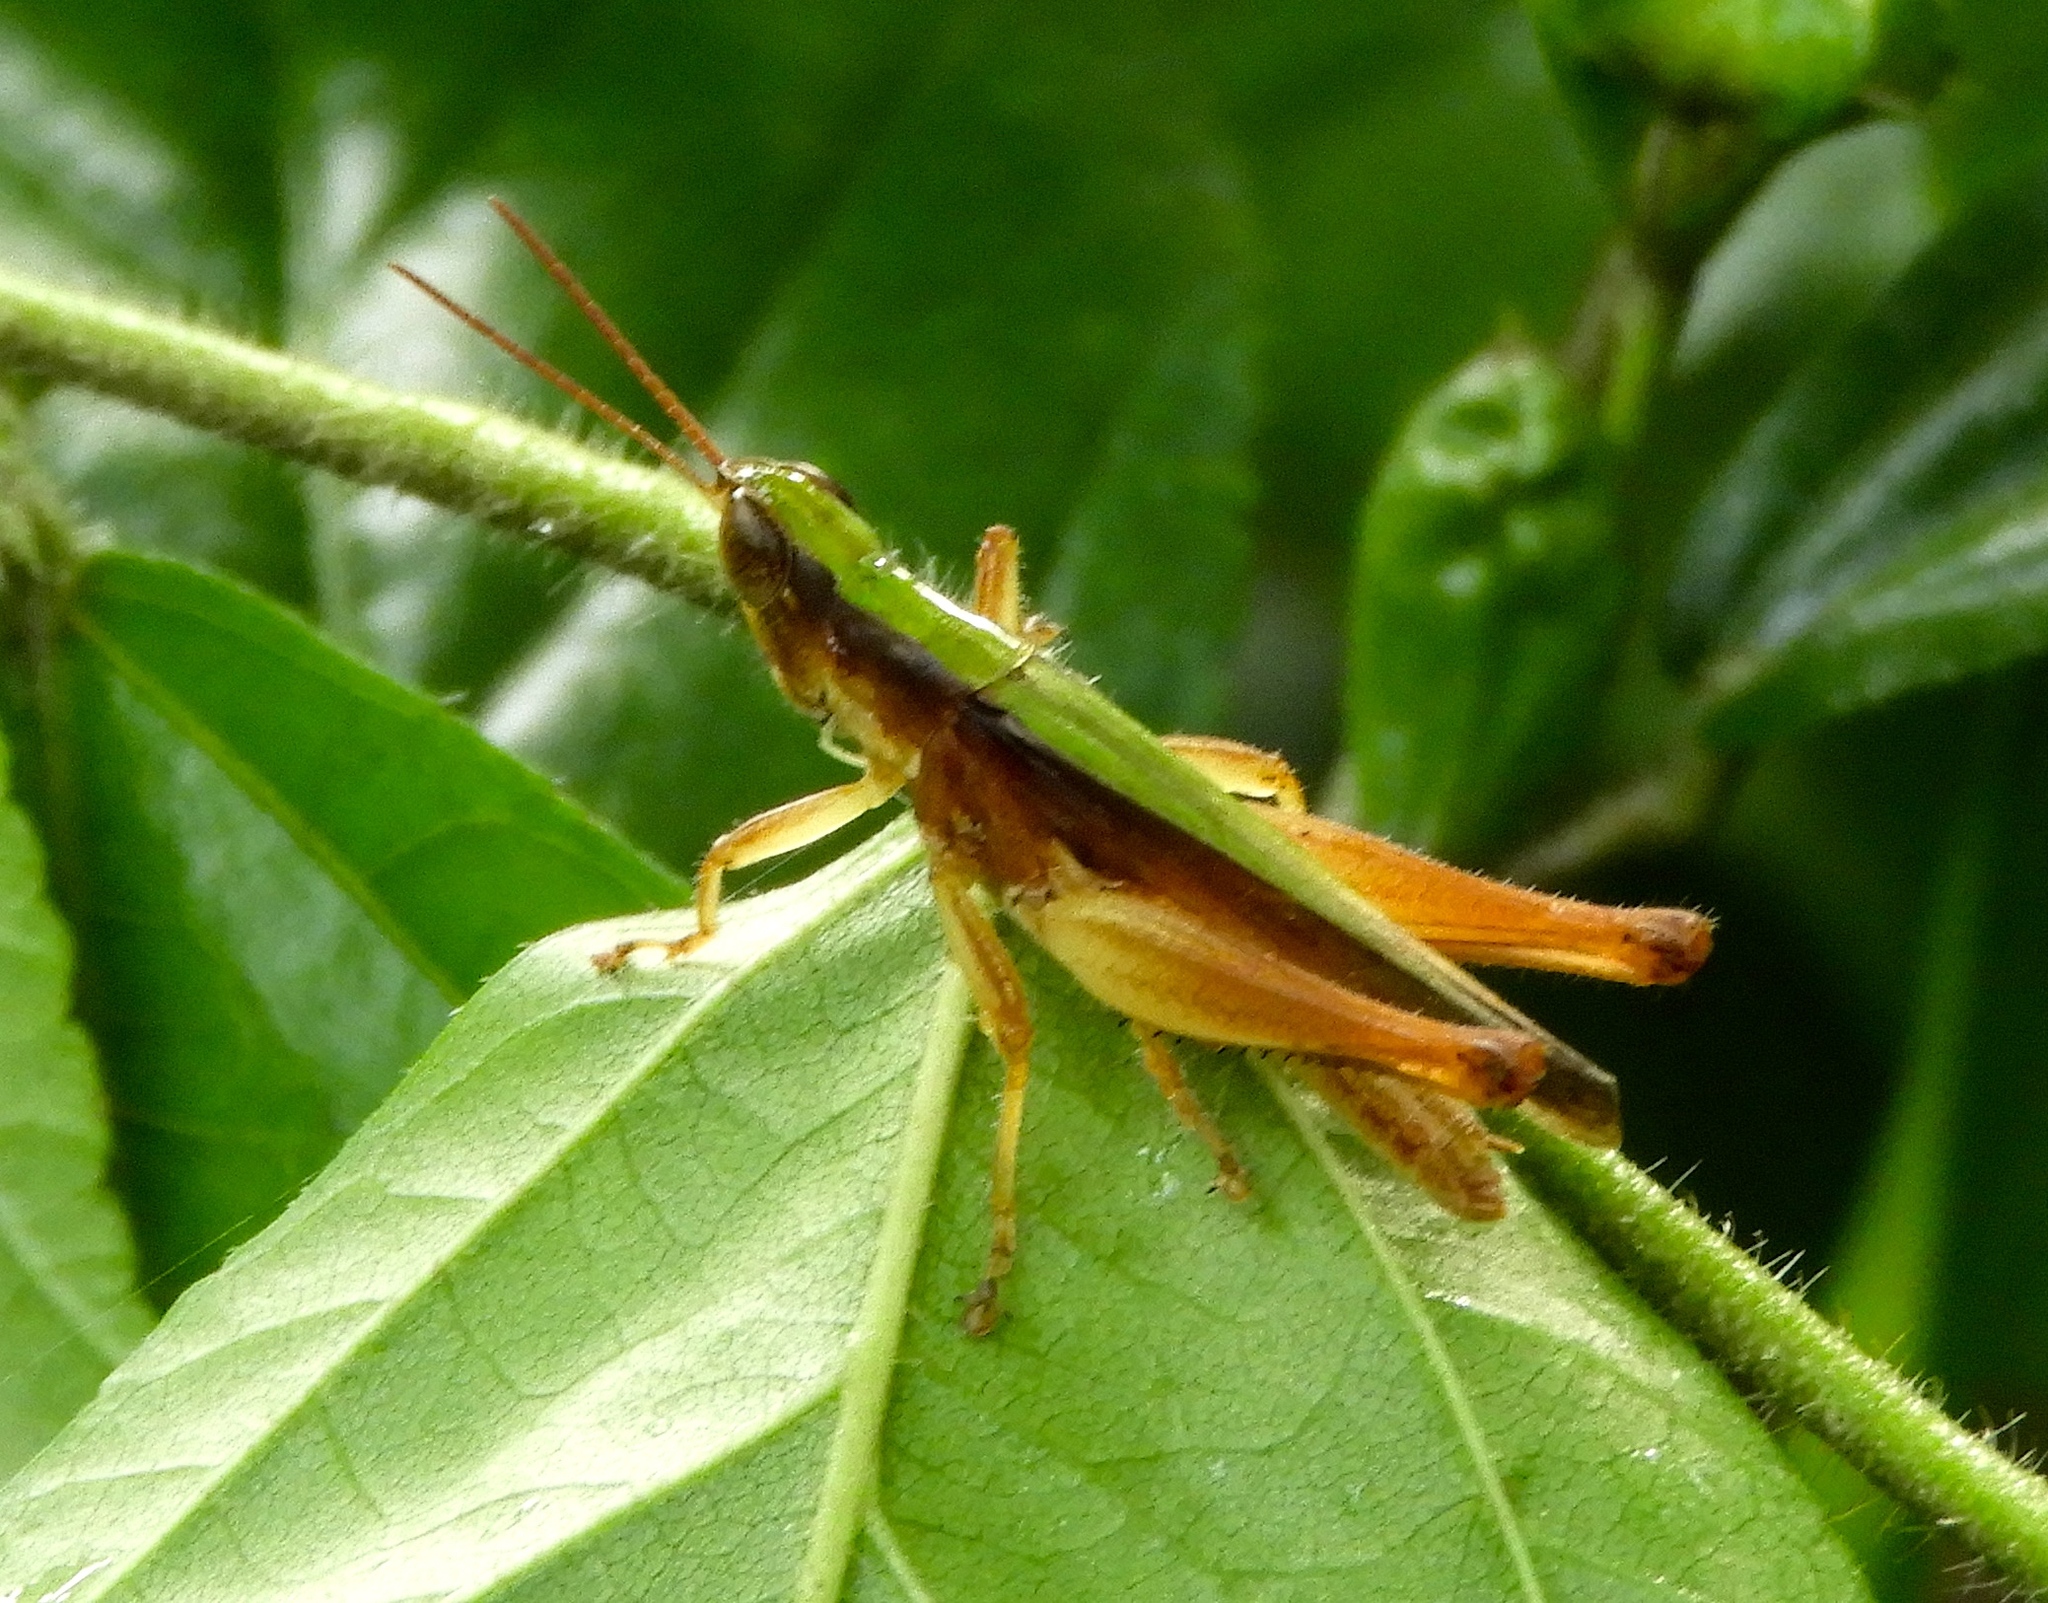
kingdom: Animalia
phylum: Arthropoda
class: Insecta
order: Orthoptera
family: Acrididae
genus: Dichromorpha
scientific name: Dichromorpha prominula
